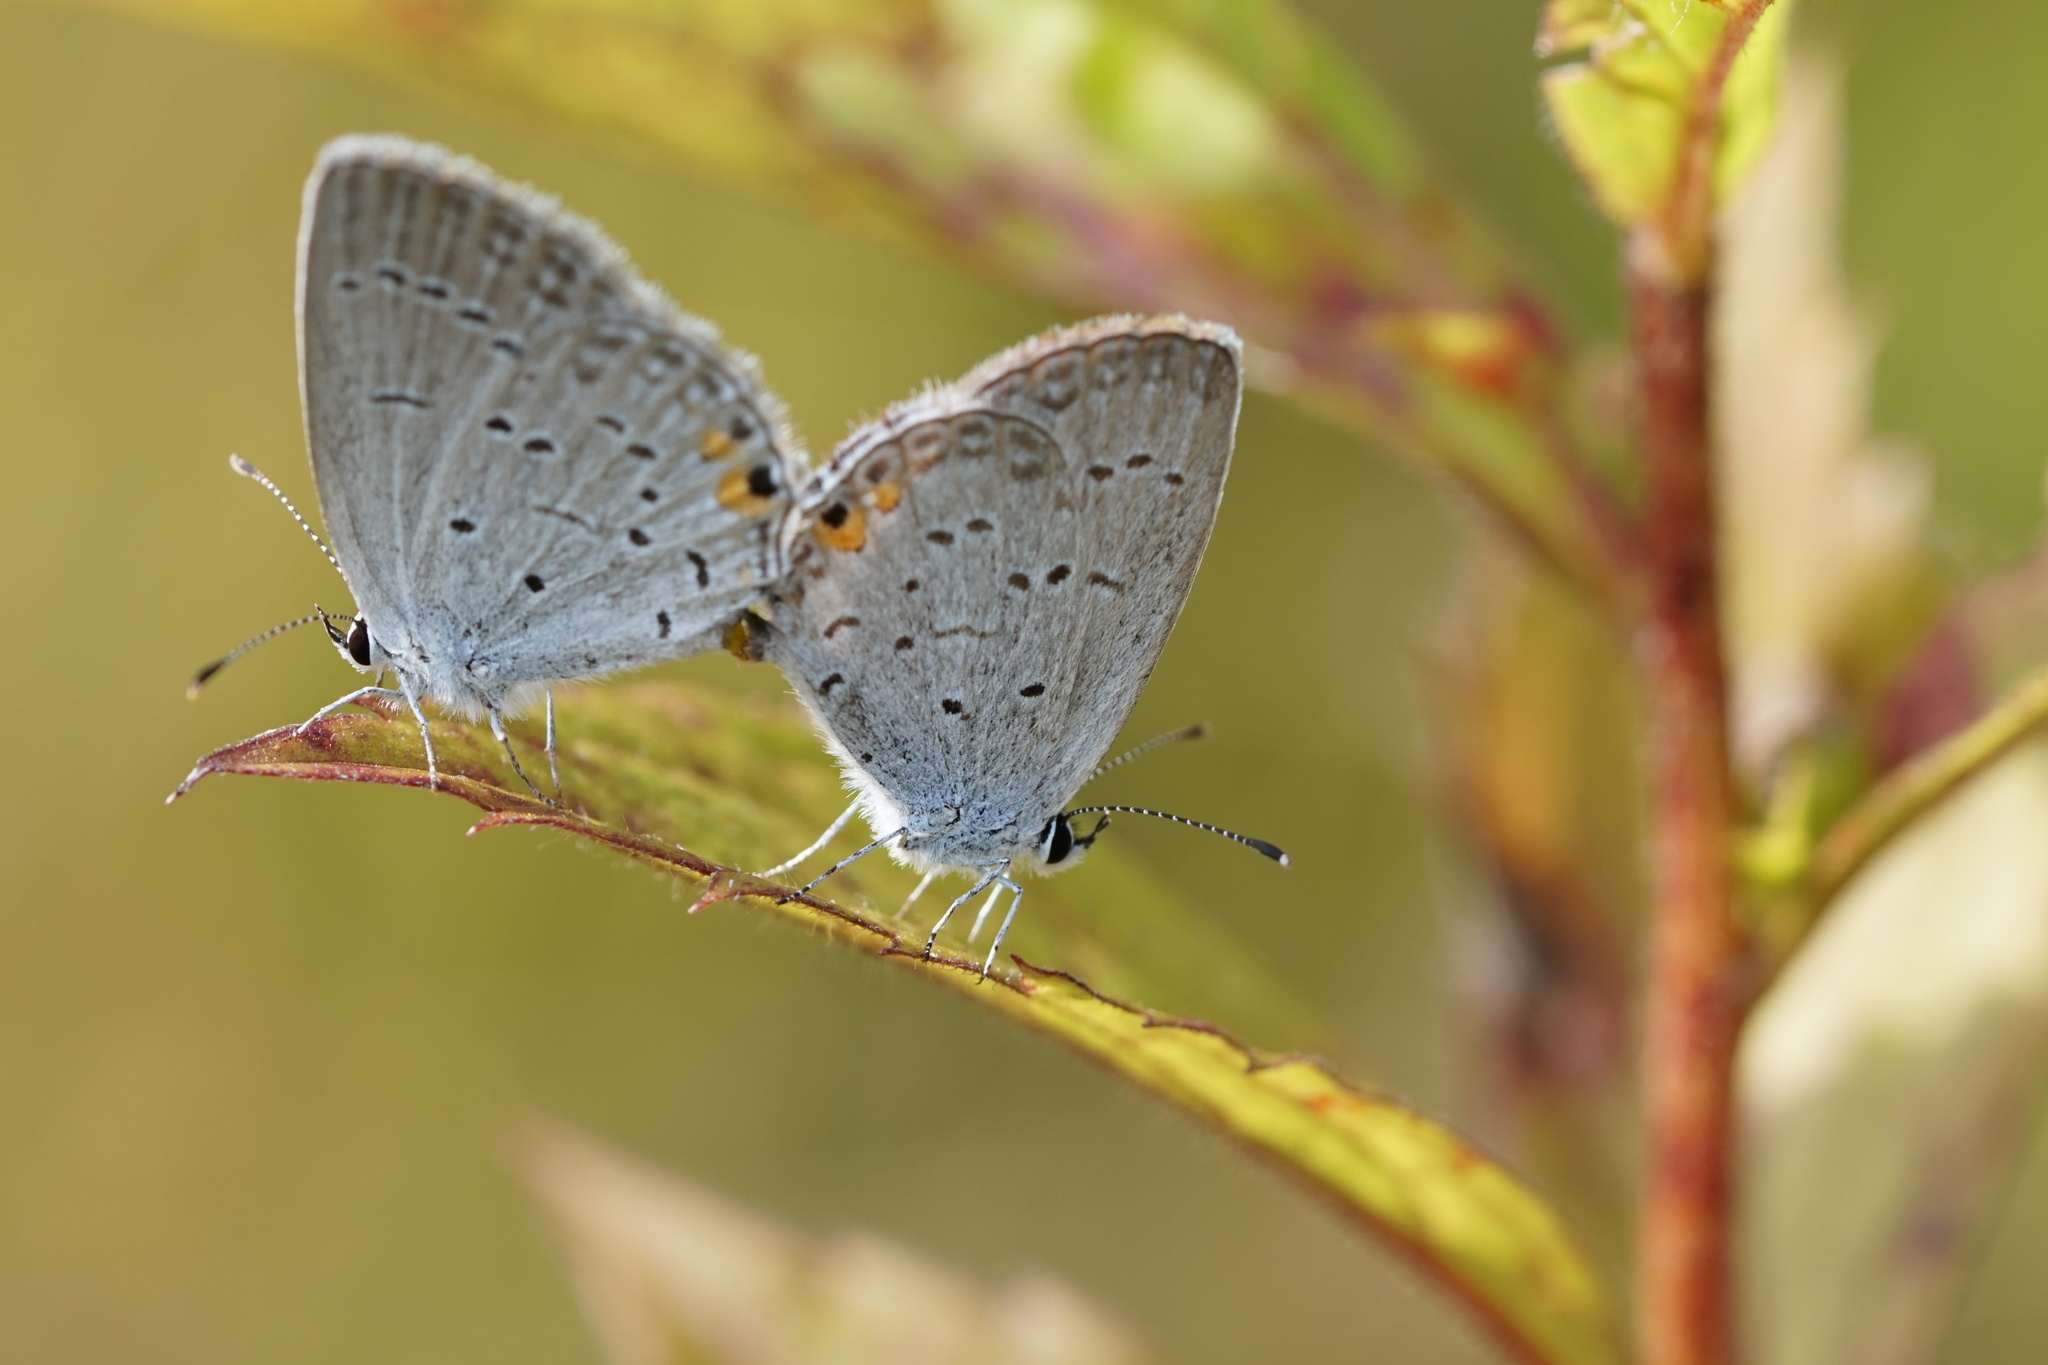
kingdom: Animalia
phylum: Arthropoda
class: Insecta
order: Lepidoptera
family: Lycaenidae
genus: Elkalyce
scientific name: Elkalyce comyntas
